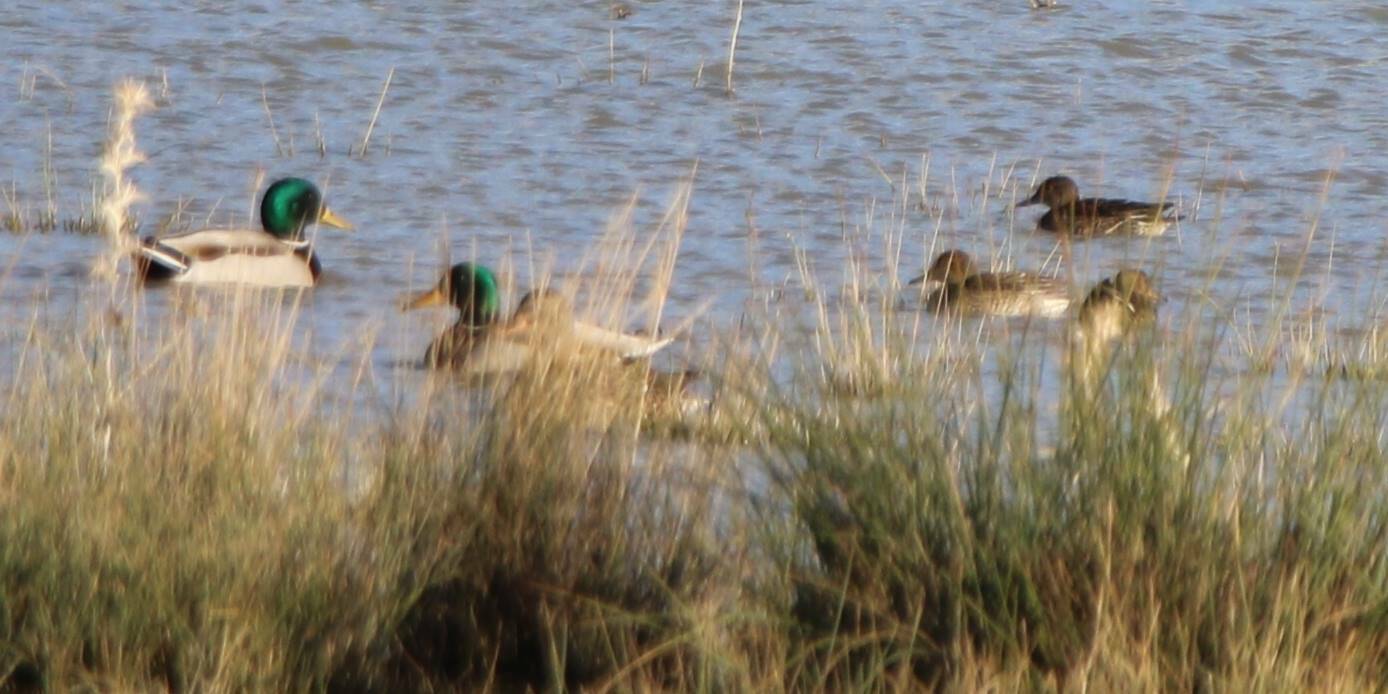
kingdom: Animalia
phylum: Chordata
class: Aves
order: Anseriformes
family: Anatidae
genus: Anas
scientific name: Anas platyrhynchos
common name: Mallard
